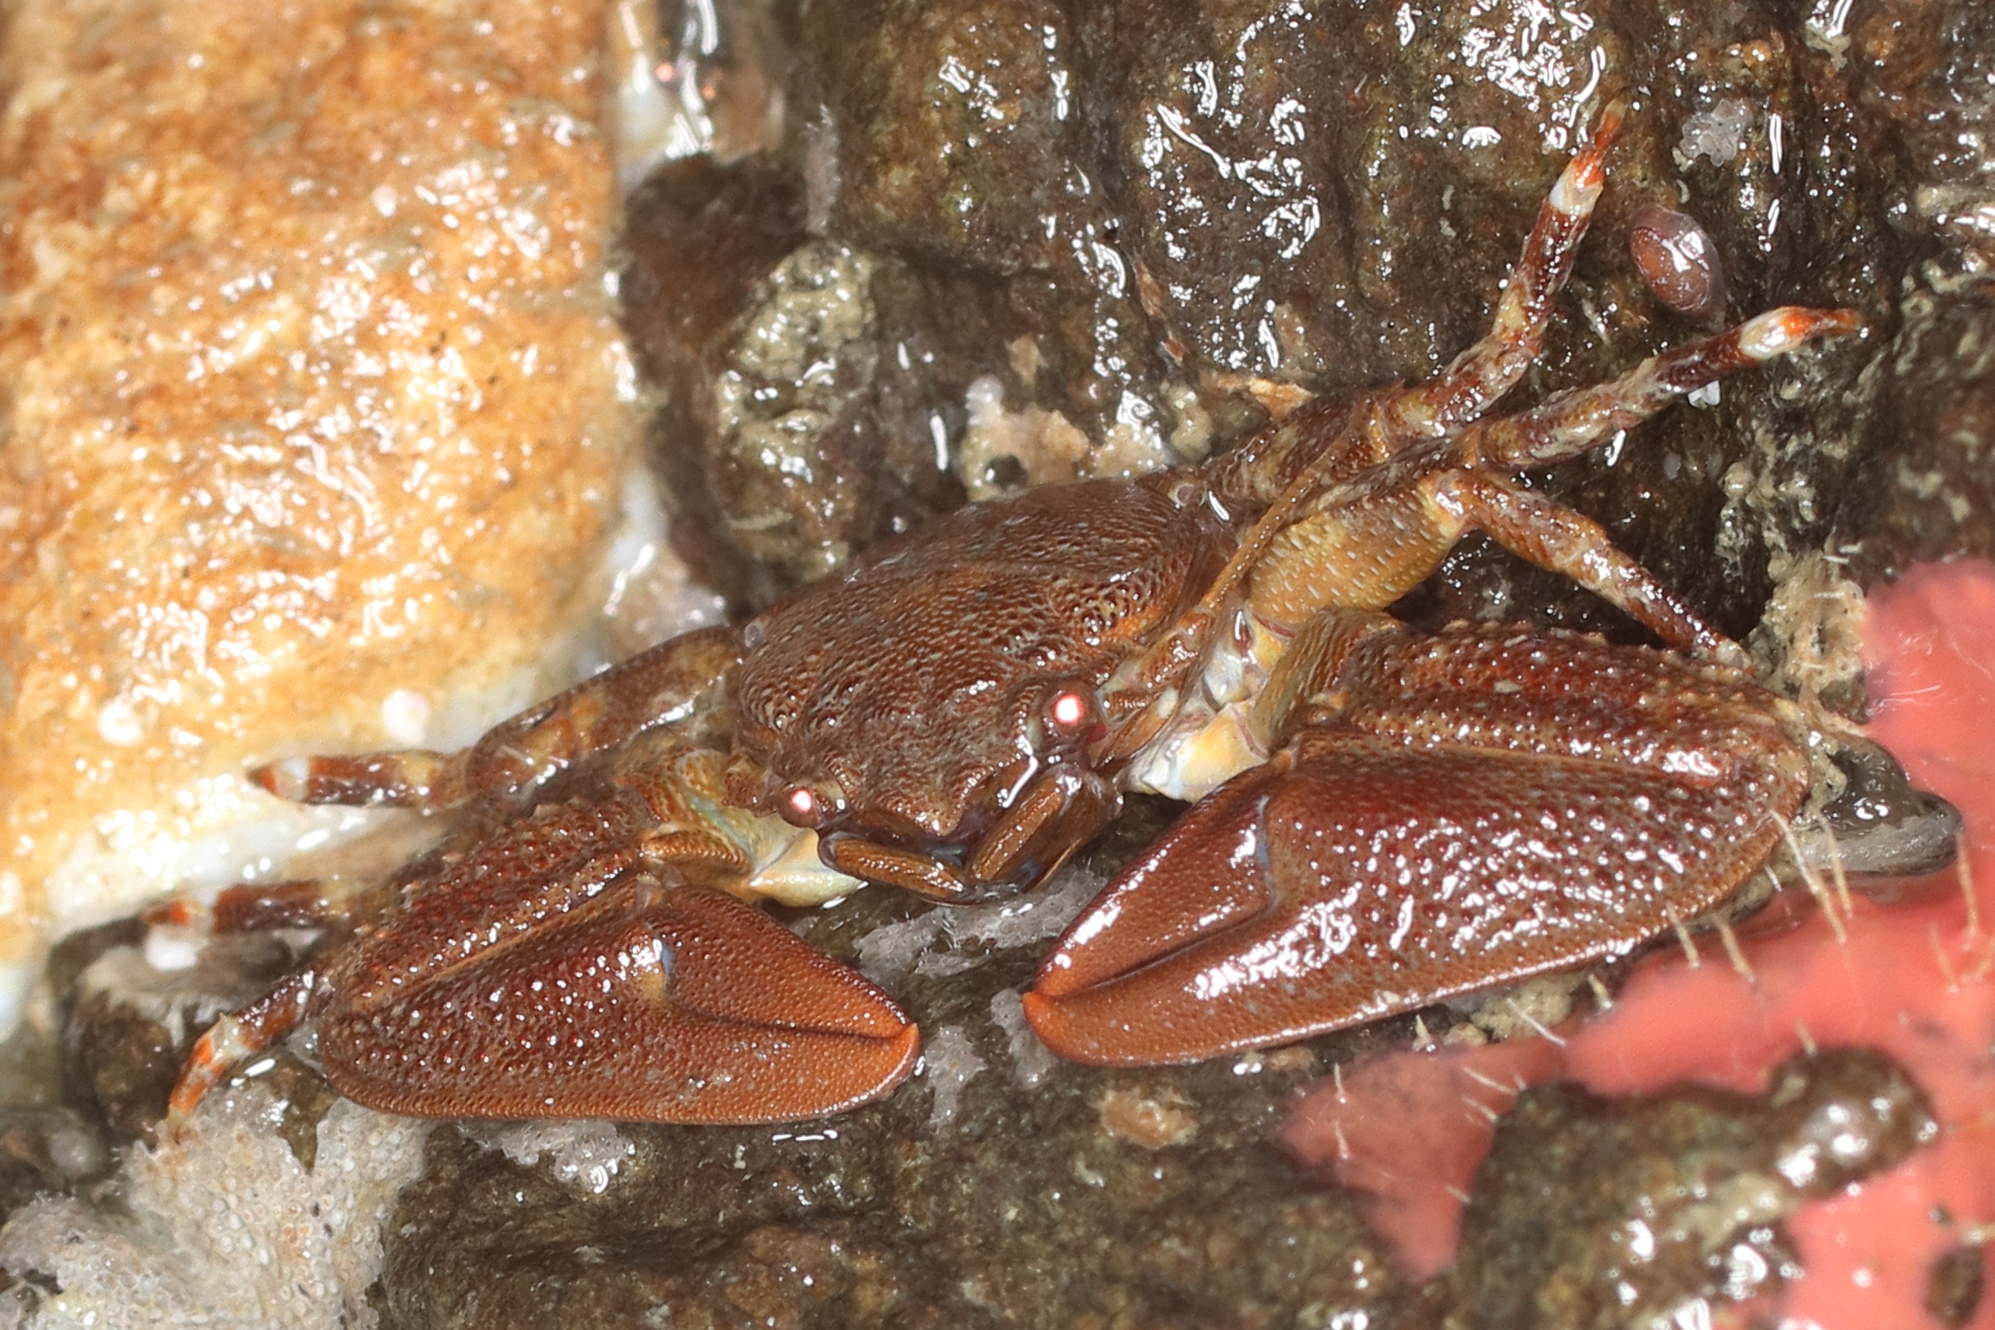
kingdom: Animalia
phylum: Arthropoda
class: Malacostraca
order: Decapoda
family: Porcellanidae
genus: Petrolisthes
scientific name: Petrolisthes eriomerus
